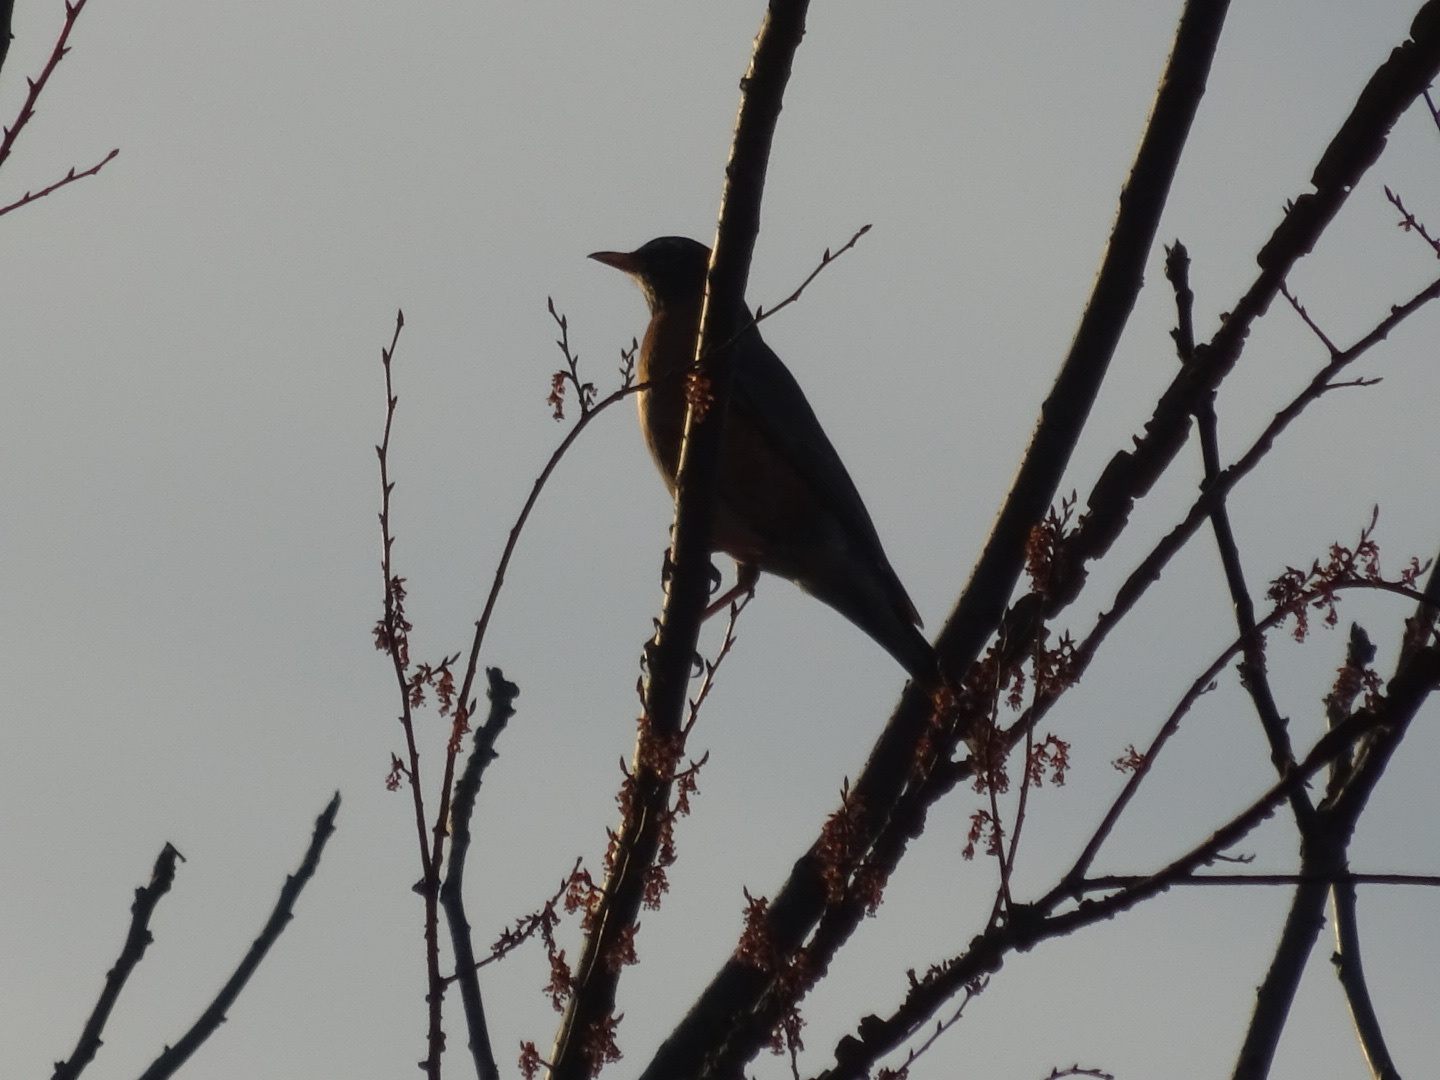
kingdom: Animalia
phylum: Chordata
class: Aves
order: Passeriformes
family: Turdidae
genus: Turdus
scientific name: Turdus migratorius
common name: American robin
